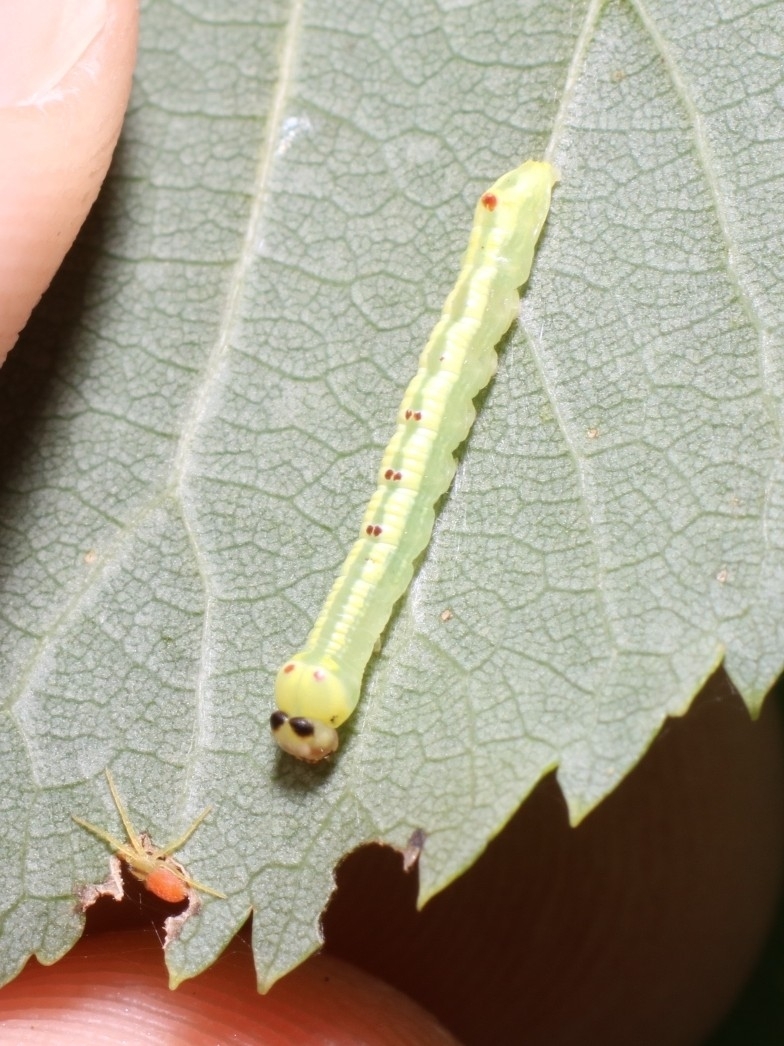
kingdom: Animalia
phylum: Arthropoda
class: Insecta
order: Lepidoptera
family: Notodontidae
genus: Ellida
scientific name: Ellida caniplaga
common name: Linden prominent
